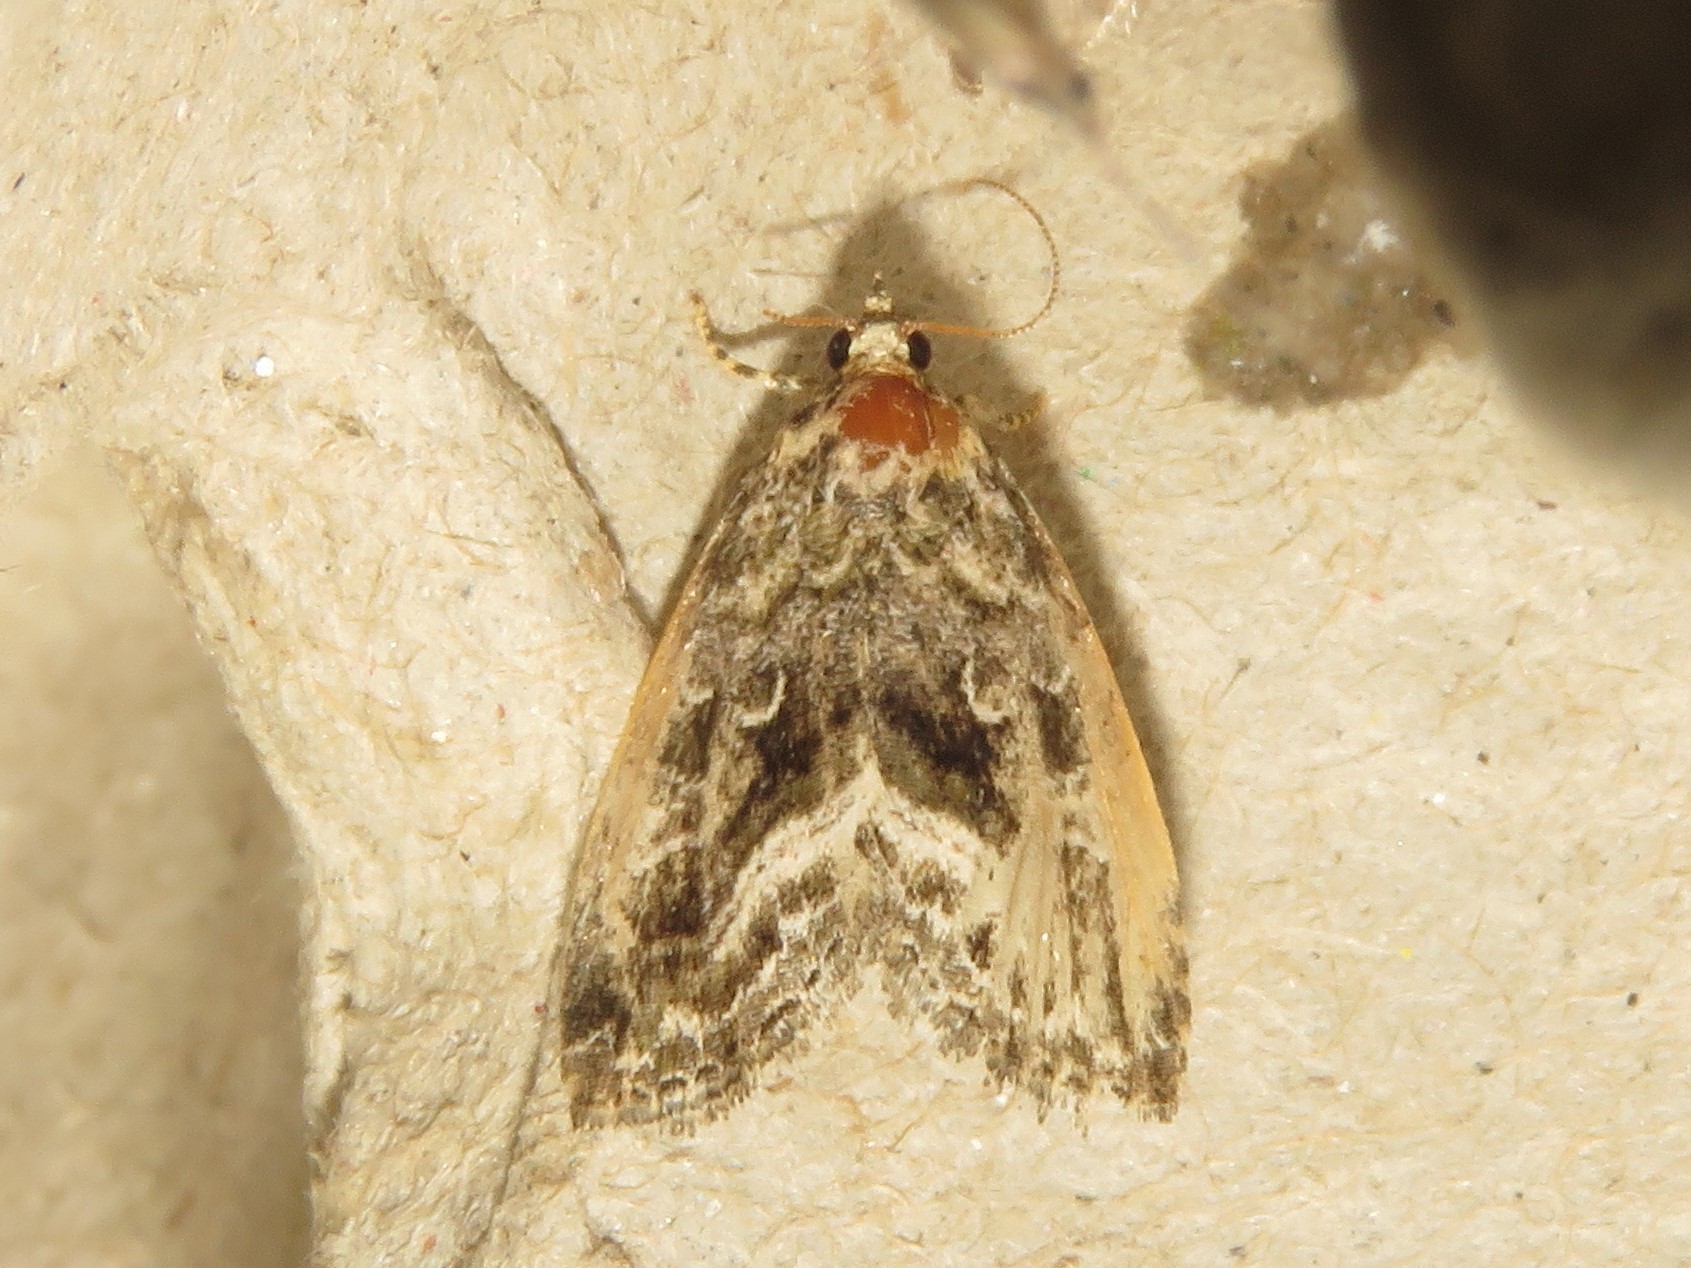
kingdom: Animalia
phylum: Arthropoda
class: Insecta
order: Lepidoptera
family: Noctuidae
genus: Protodeltote
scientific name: Protodeltote muscosula
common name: Large mossy glyph
